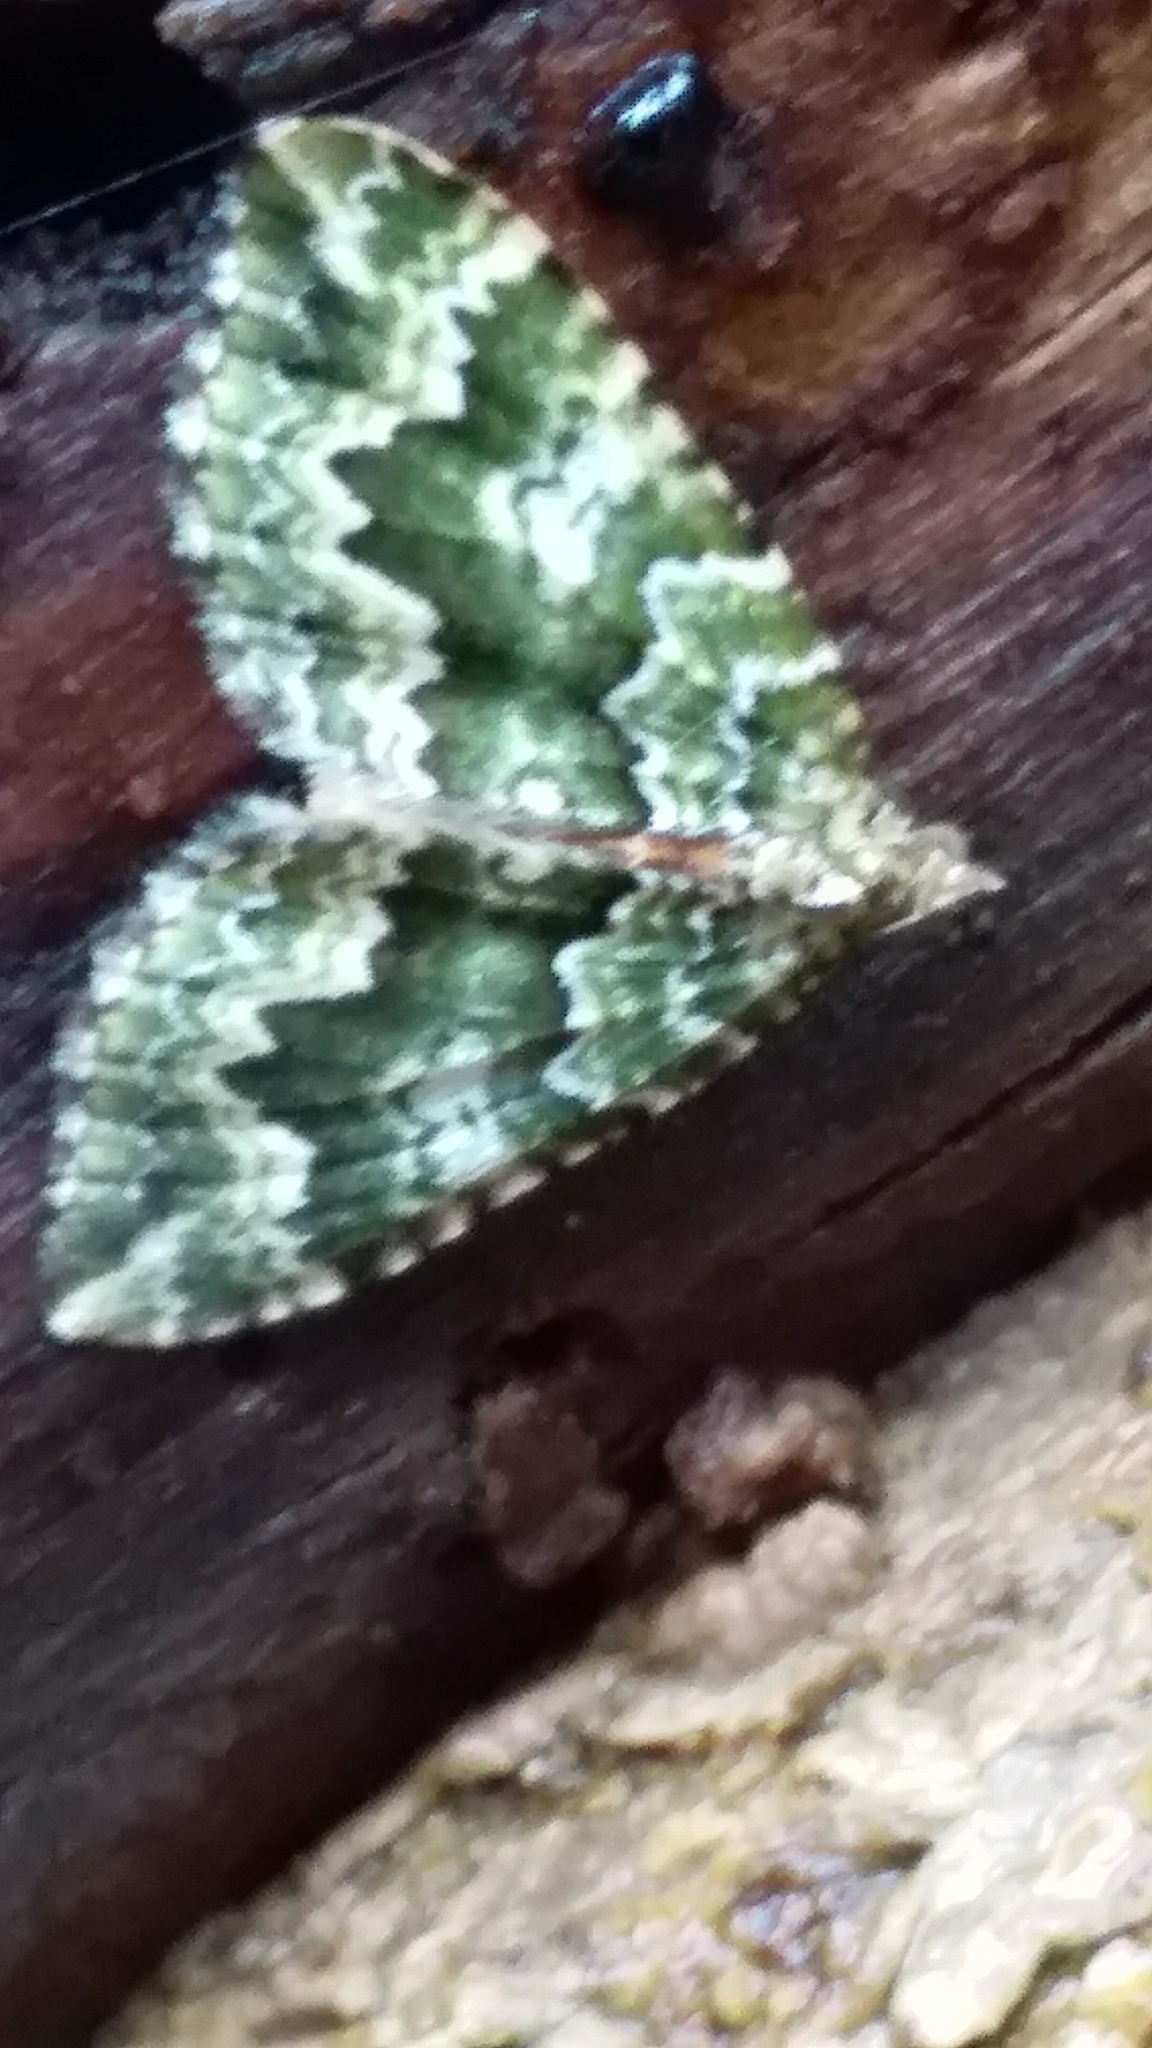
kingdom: Animalia
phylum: Arthropoda
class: Insecta
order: Lepidoptera
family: Geometridae
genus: Asaphodes
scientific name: Asaphodes beata
